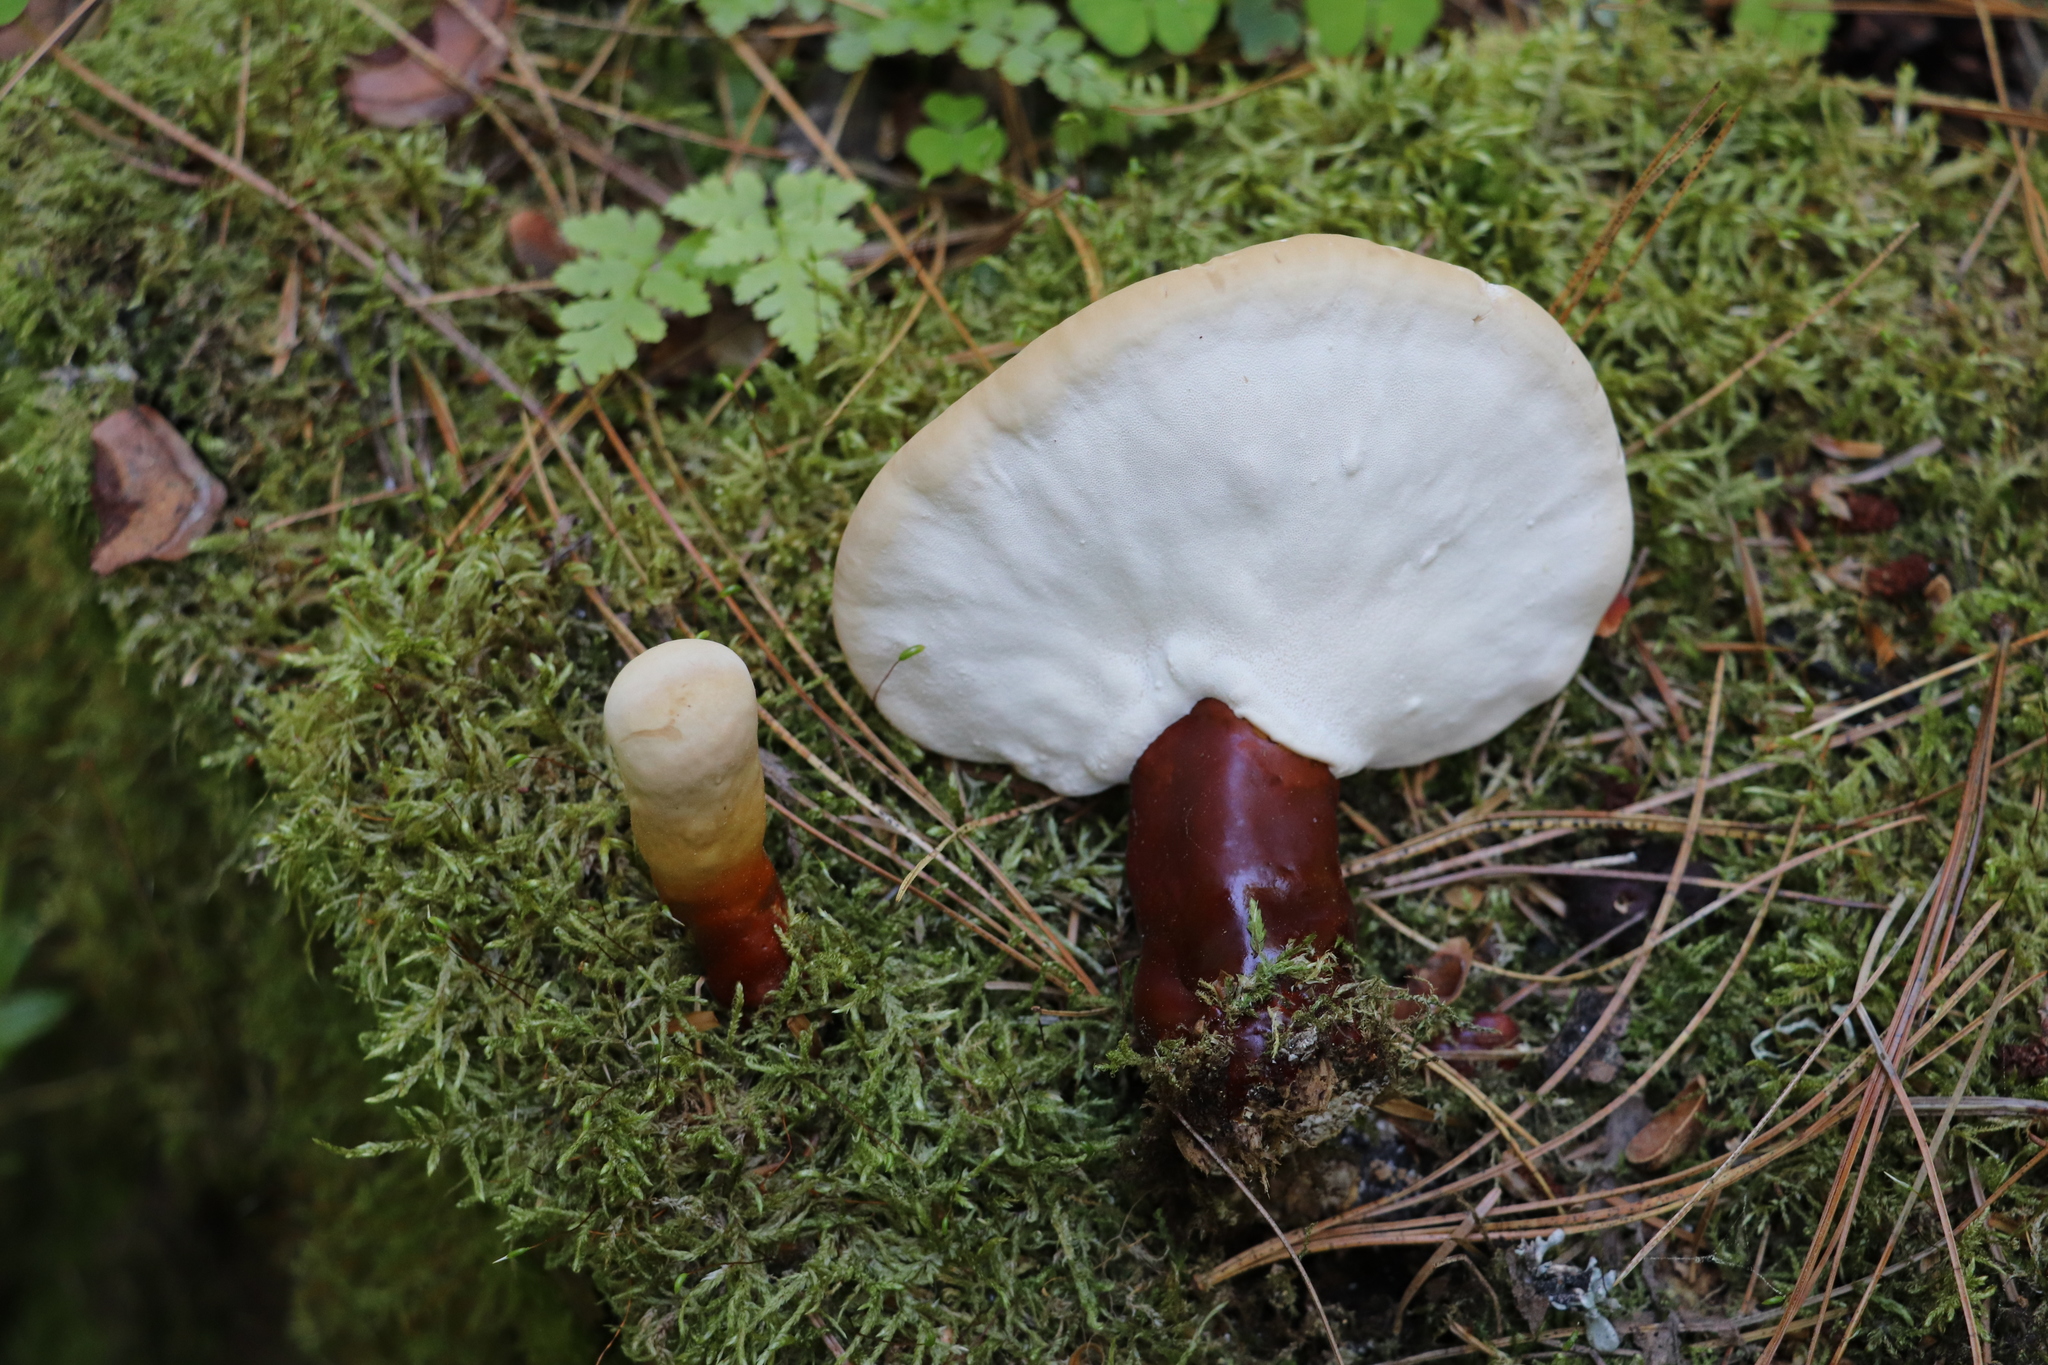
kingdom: Fungi
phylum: Basidiomycota
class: Agaricomycetes
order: Polyporales
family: Polyporaceae
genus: Ganoderma
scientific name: Ganoderma lucidum
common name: Lacquered bracket
